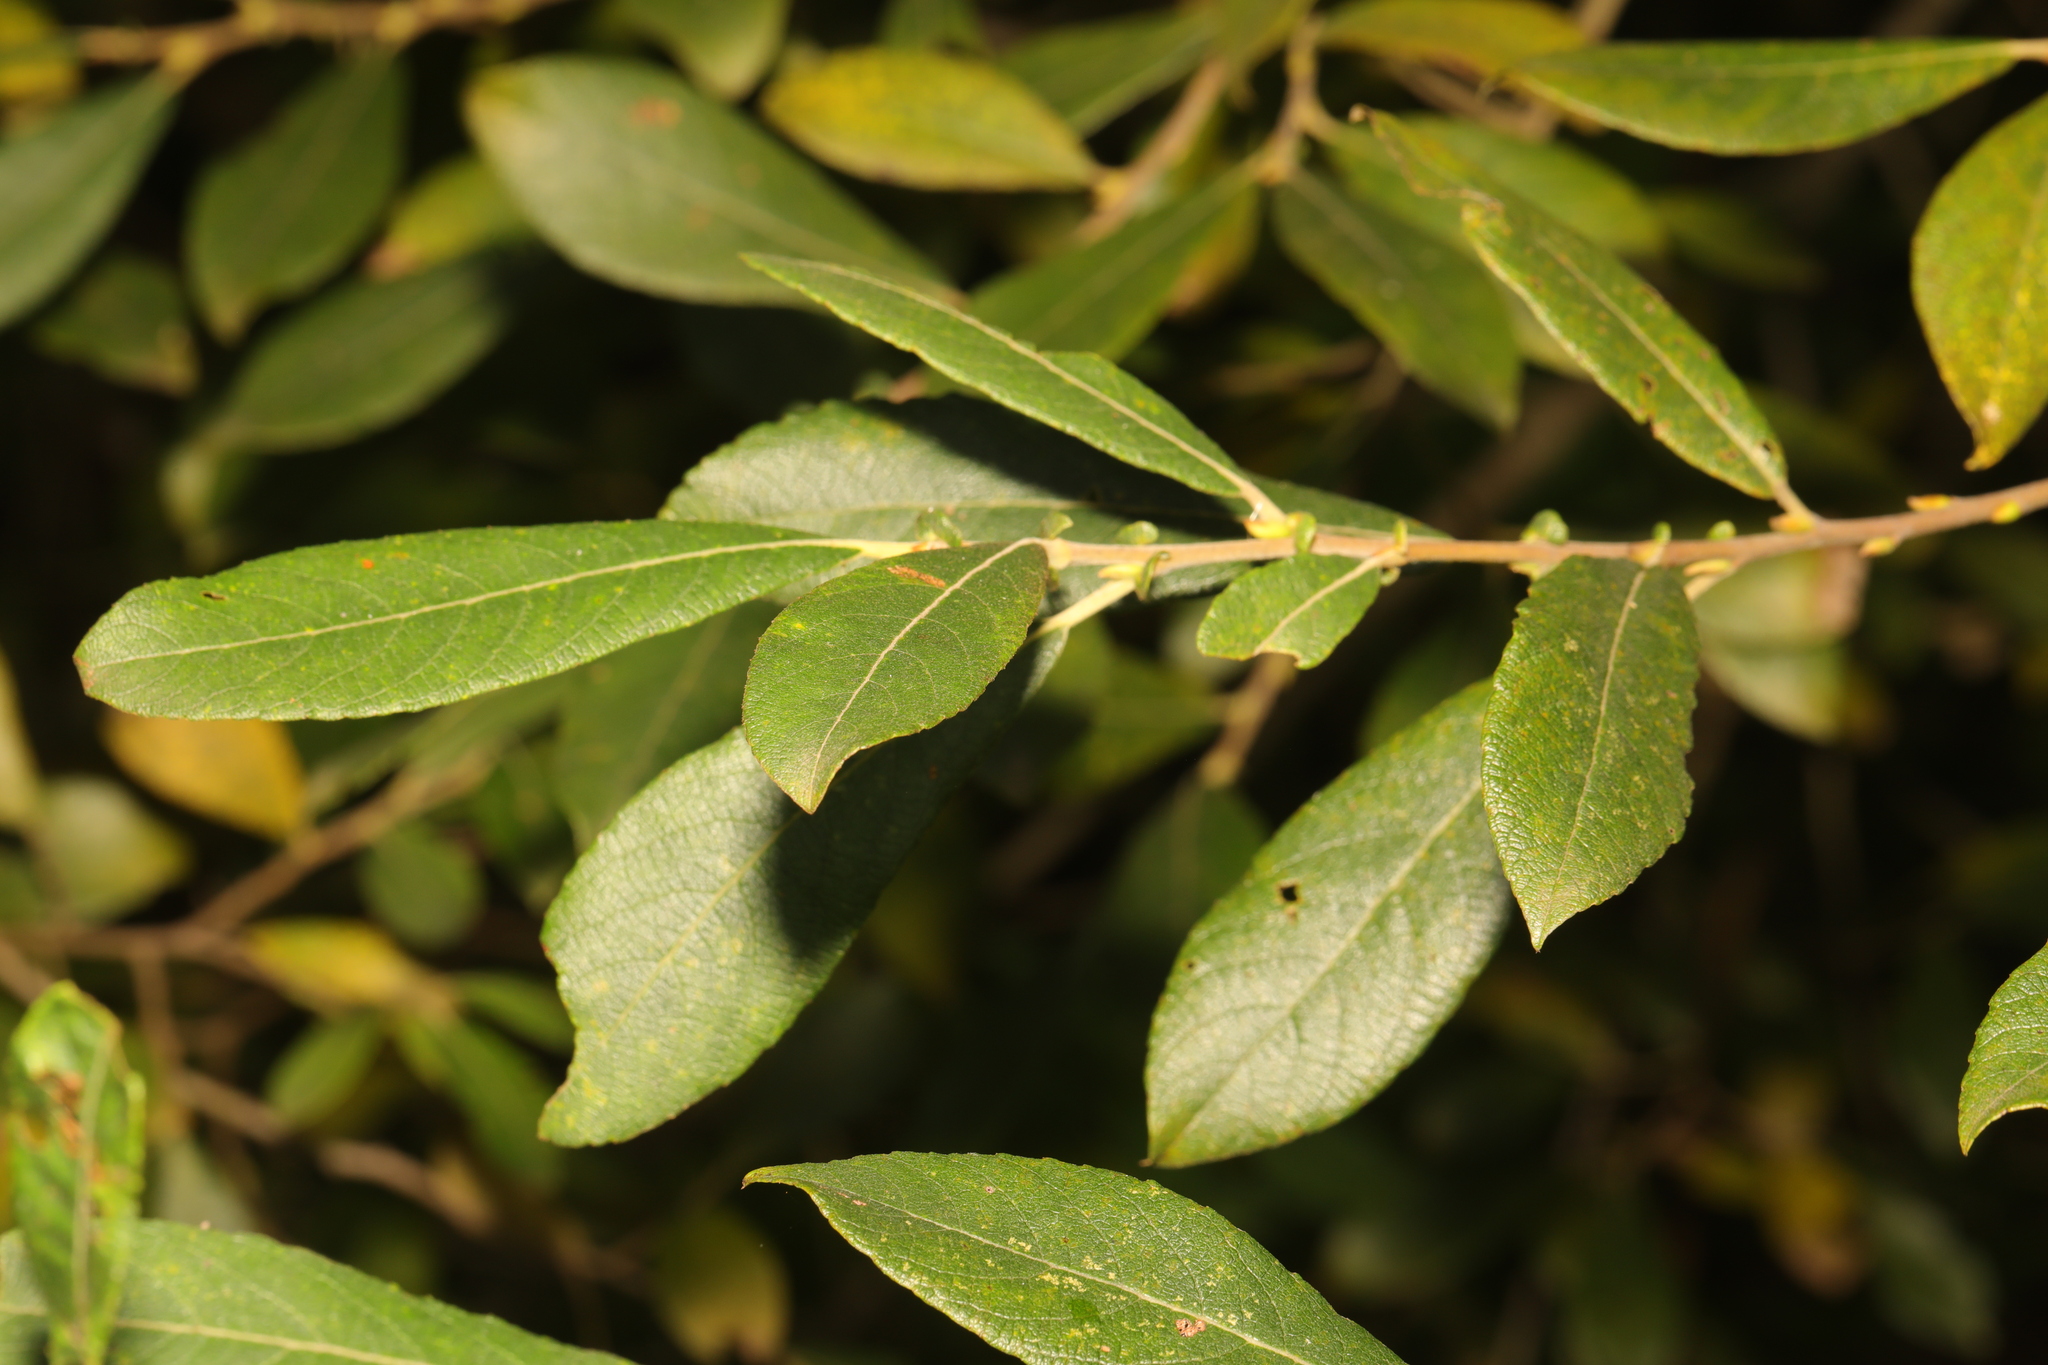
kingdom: Plantae
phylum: Tracheophyta
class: Magnoliopsida
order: Malpighiales
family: Salicaceae
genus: Salix
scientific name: Salix atrocinerea
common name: Rusty willow
